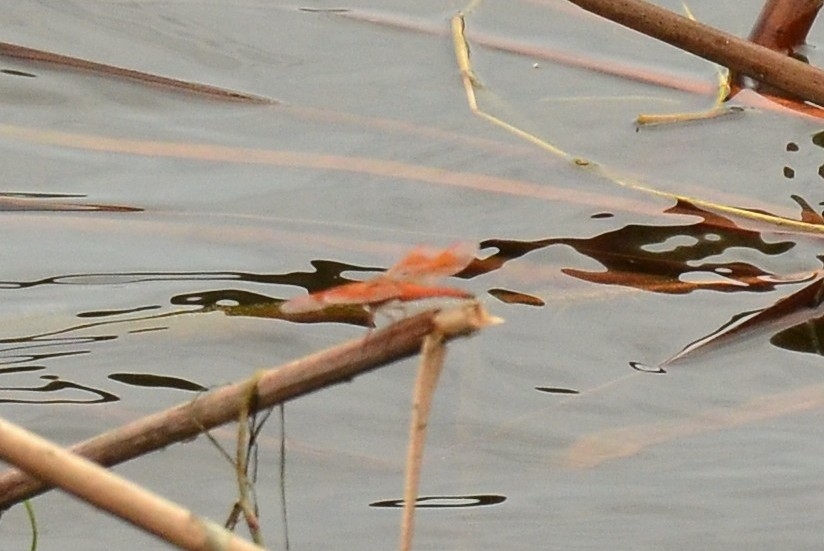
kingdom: Animalia
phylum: Arthropoda
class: Insecta
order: Odonata
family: Libellulidae
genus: Brachythemis
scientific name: Brachythemis contaminata
